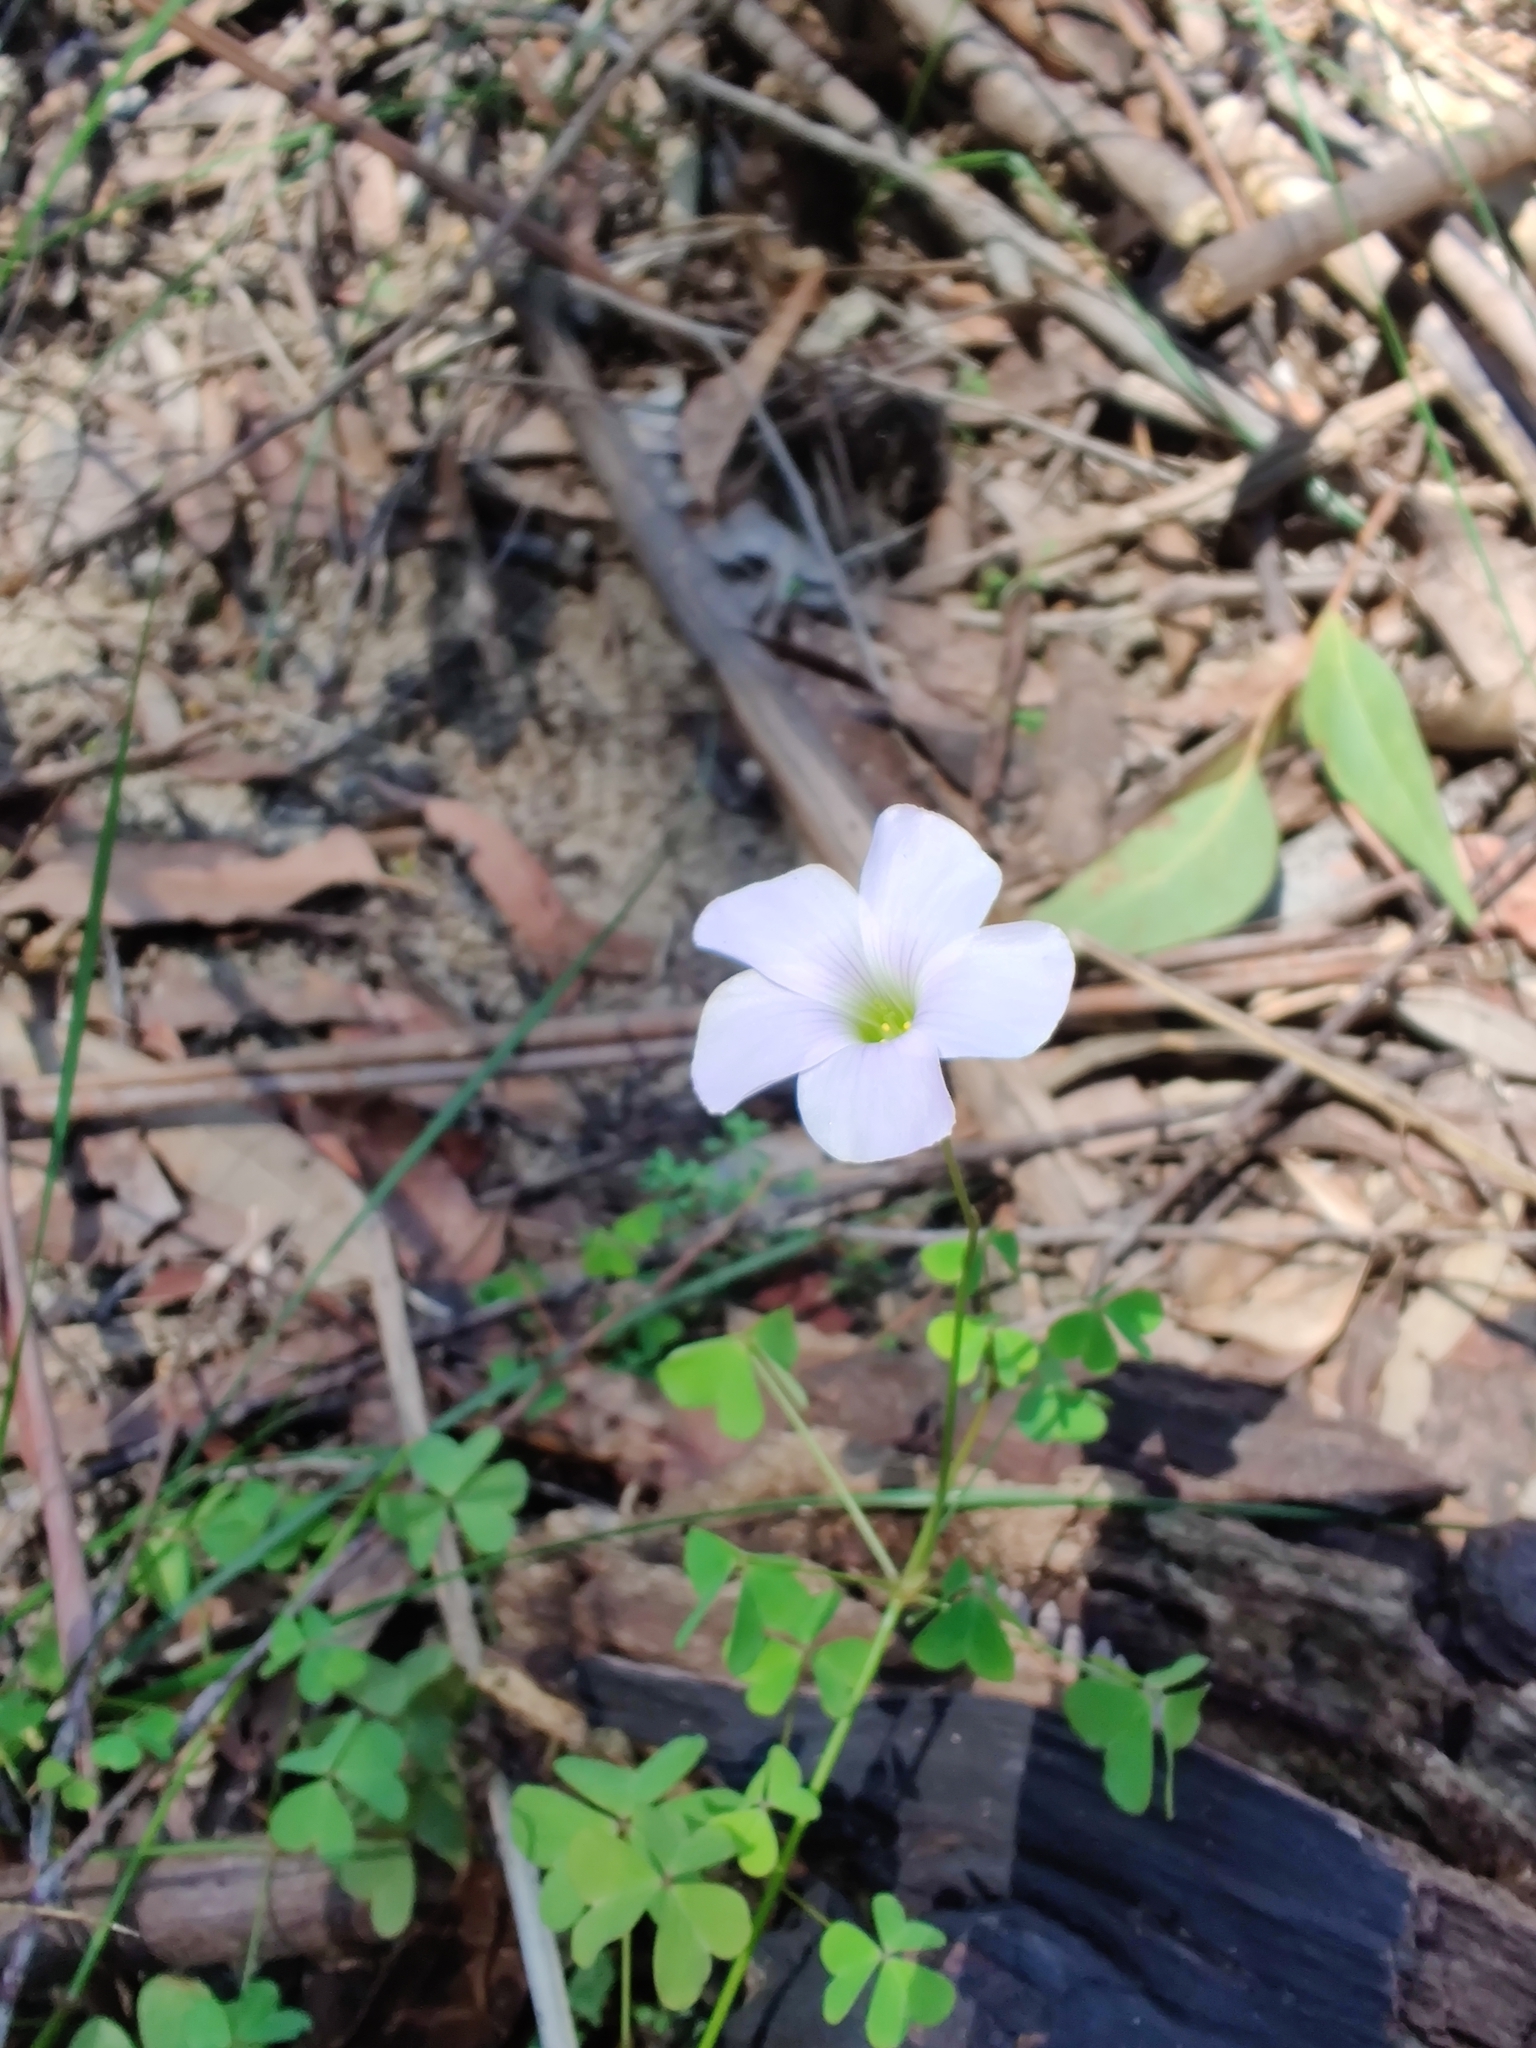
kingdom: Plantae
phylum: Tracheophyta
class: Magnoliopsida
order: Oxalidales
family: Oxalidaceae
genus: Oxalis
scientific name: Oxalis incarnata
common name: Pale pink-sorrel
